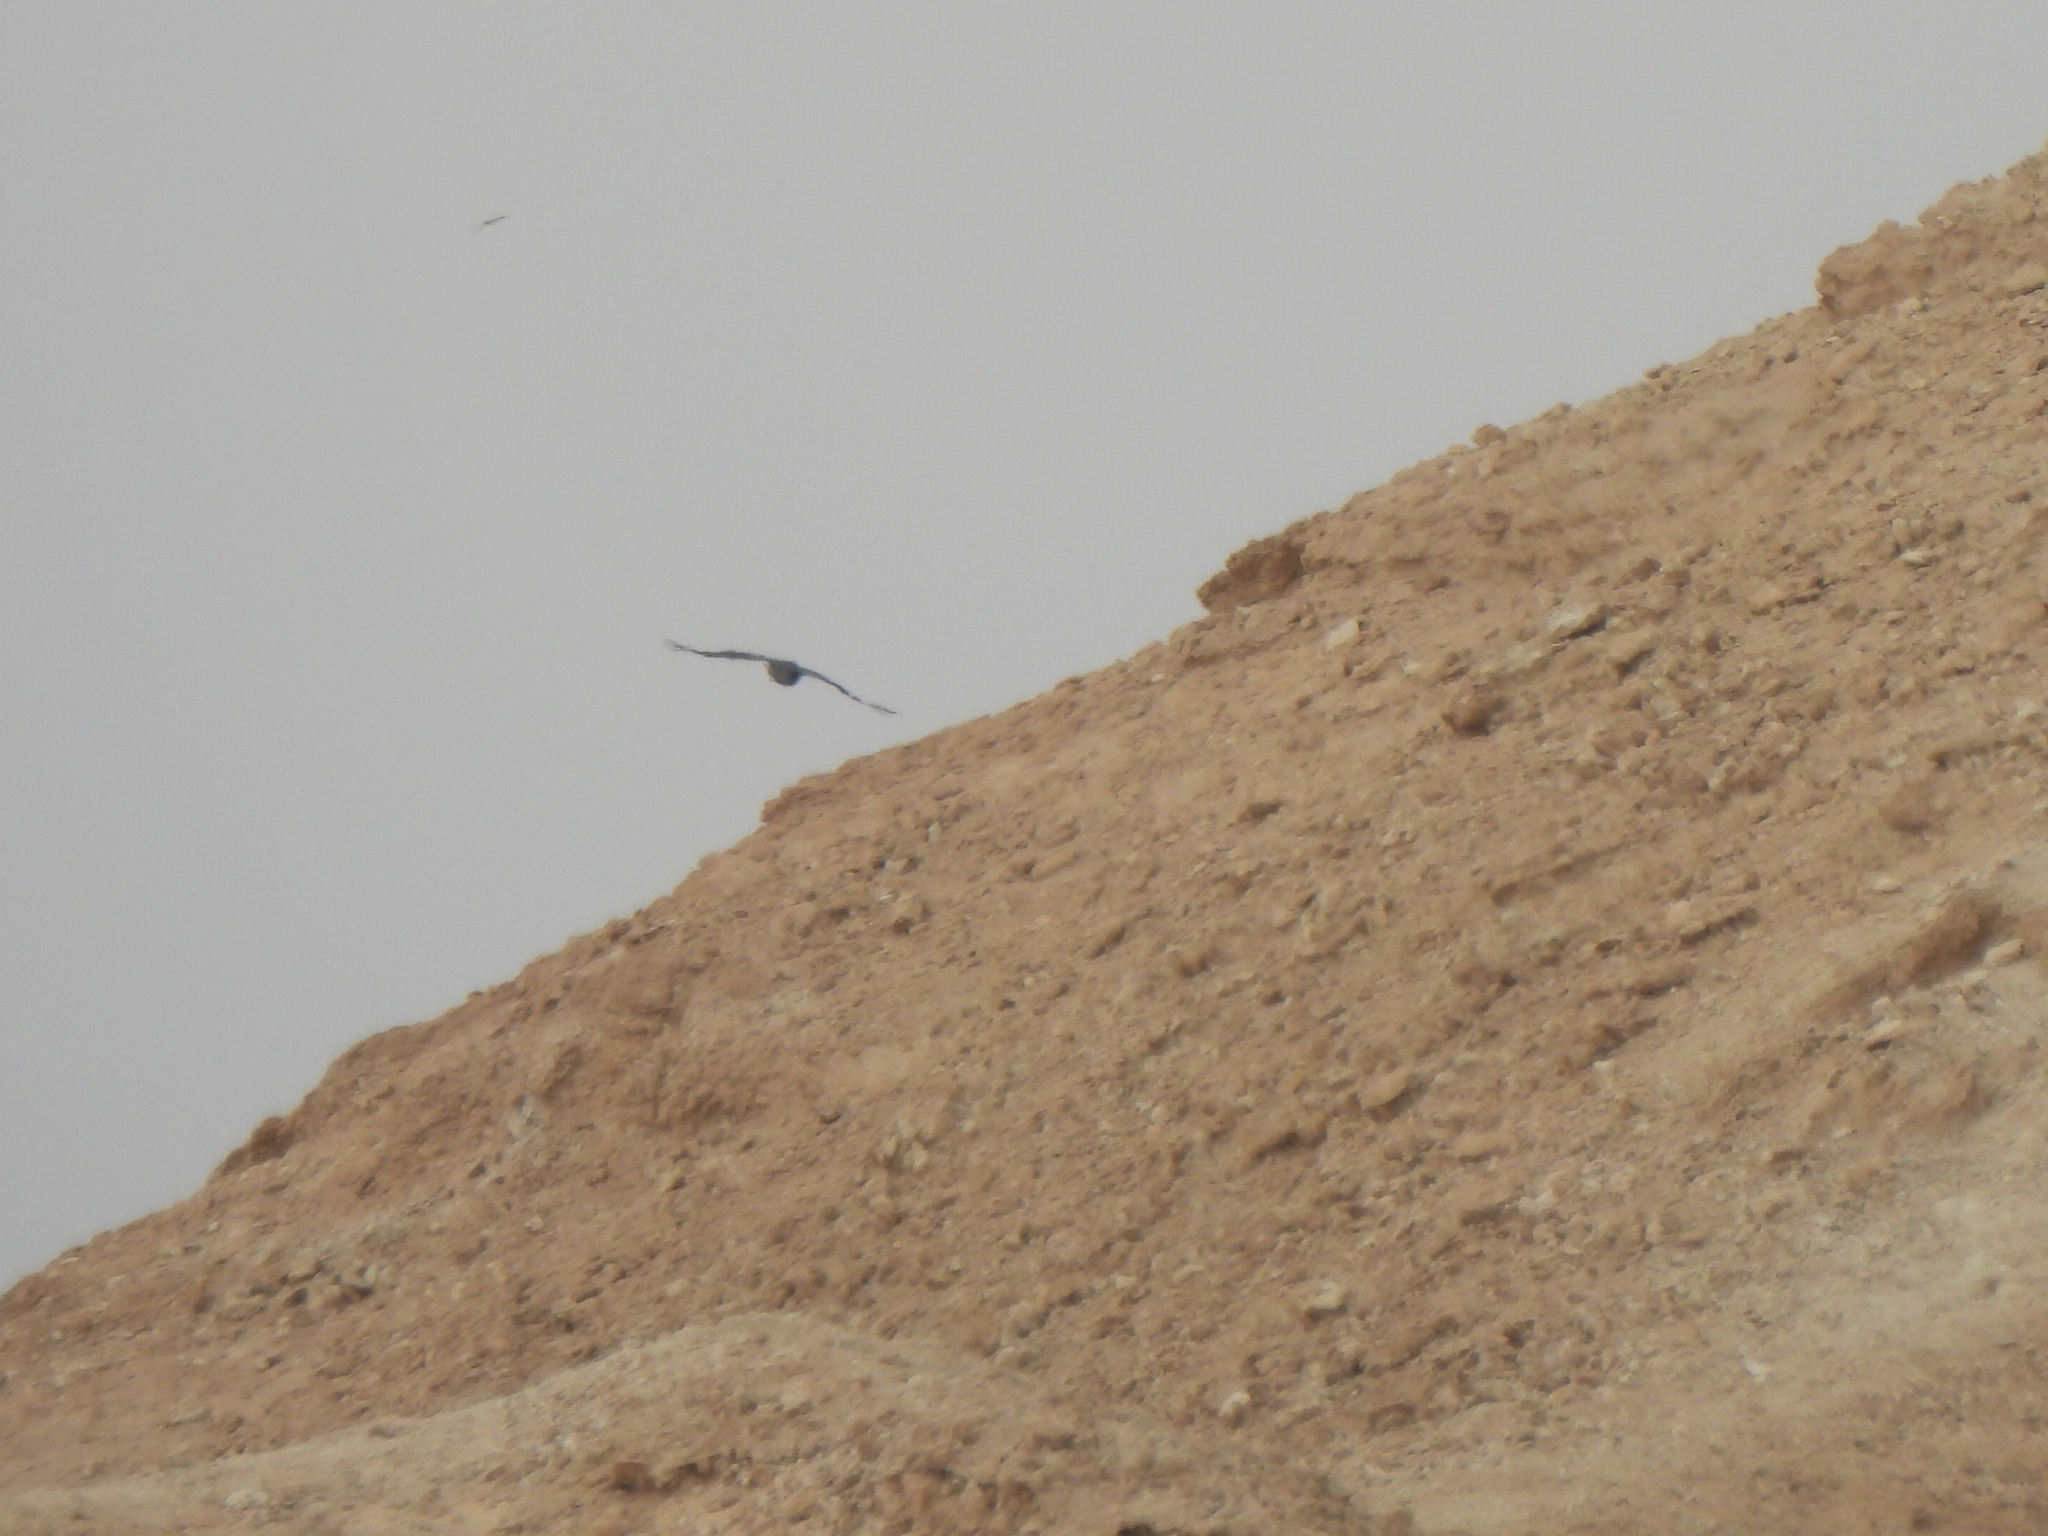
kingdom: Animalia
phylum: Chordata
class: Aves
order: Passeriformes
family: Corvidae
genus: Corvus
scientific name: Corvus ruficollis
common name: Brown-necked raven
